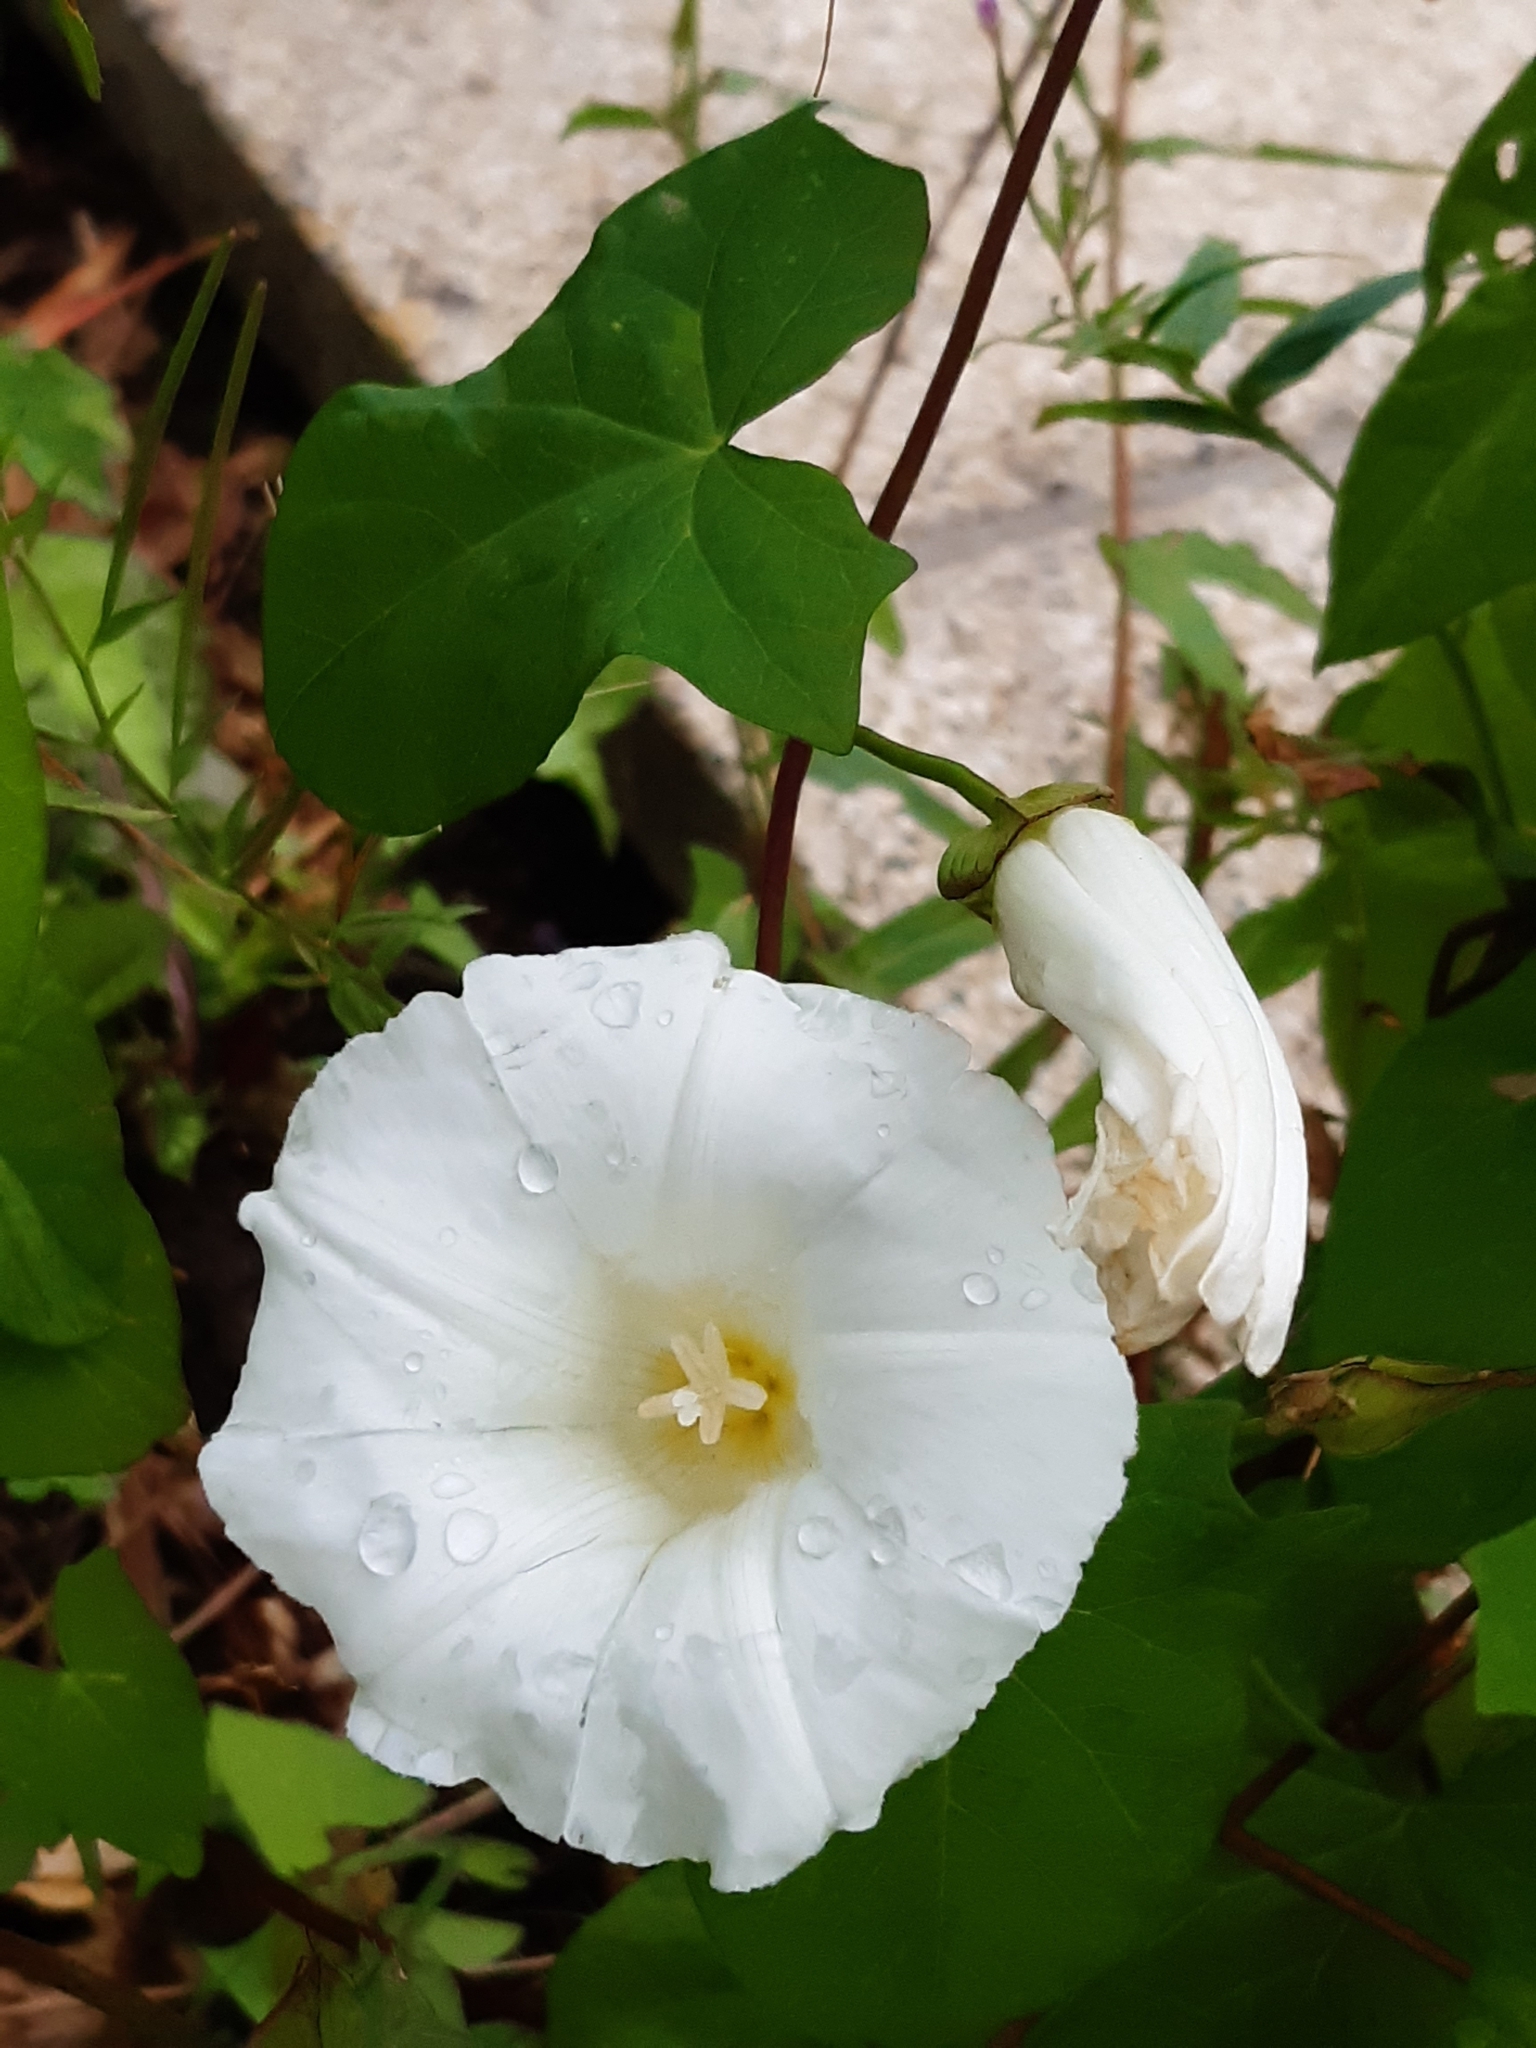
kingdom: Plantae
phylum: Tracheophyta
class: Magnoliopsida
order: Solanales
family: Convolvulaceae
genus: Calystegia
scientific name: Calystegia sepium
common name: Hedge bindweed
